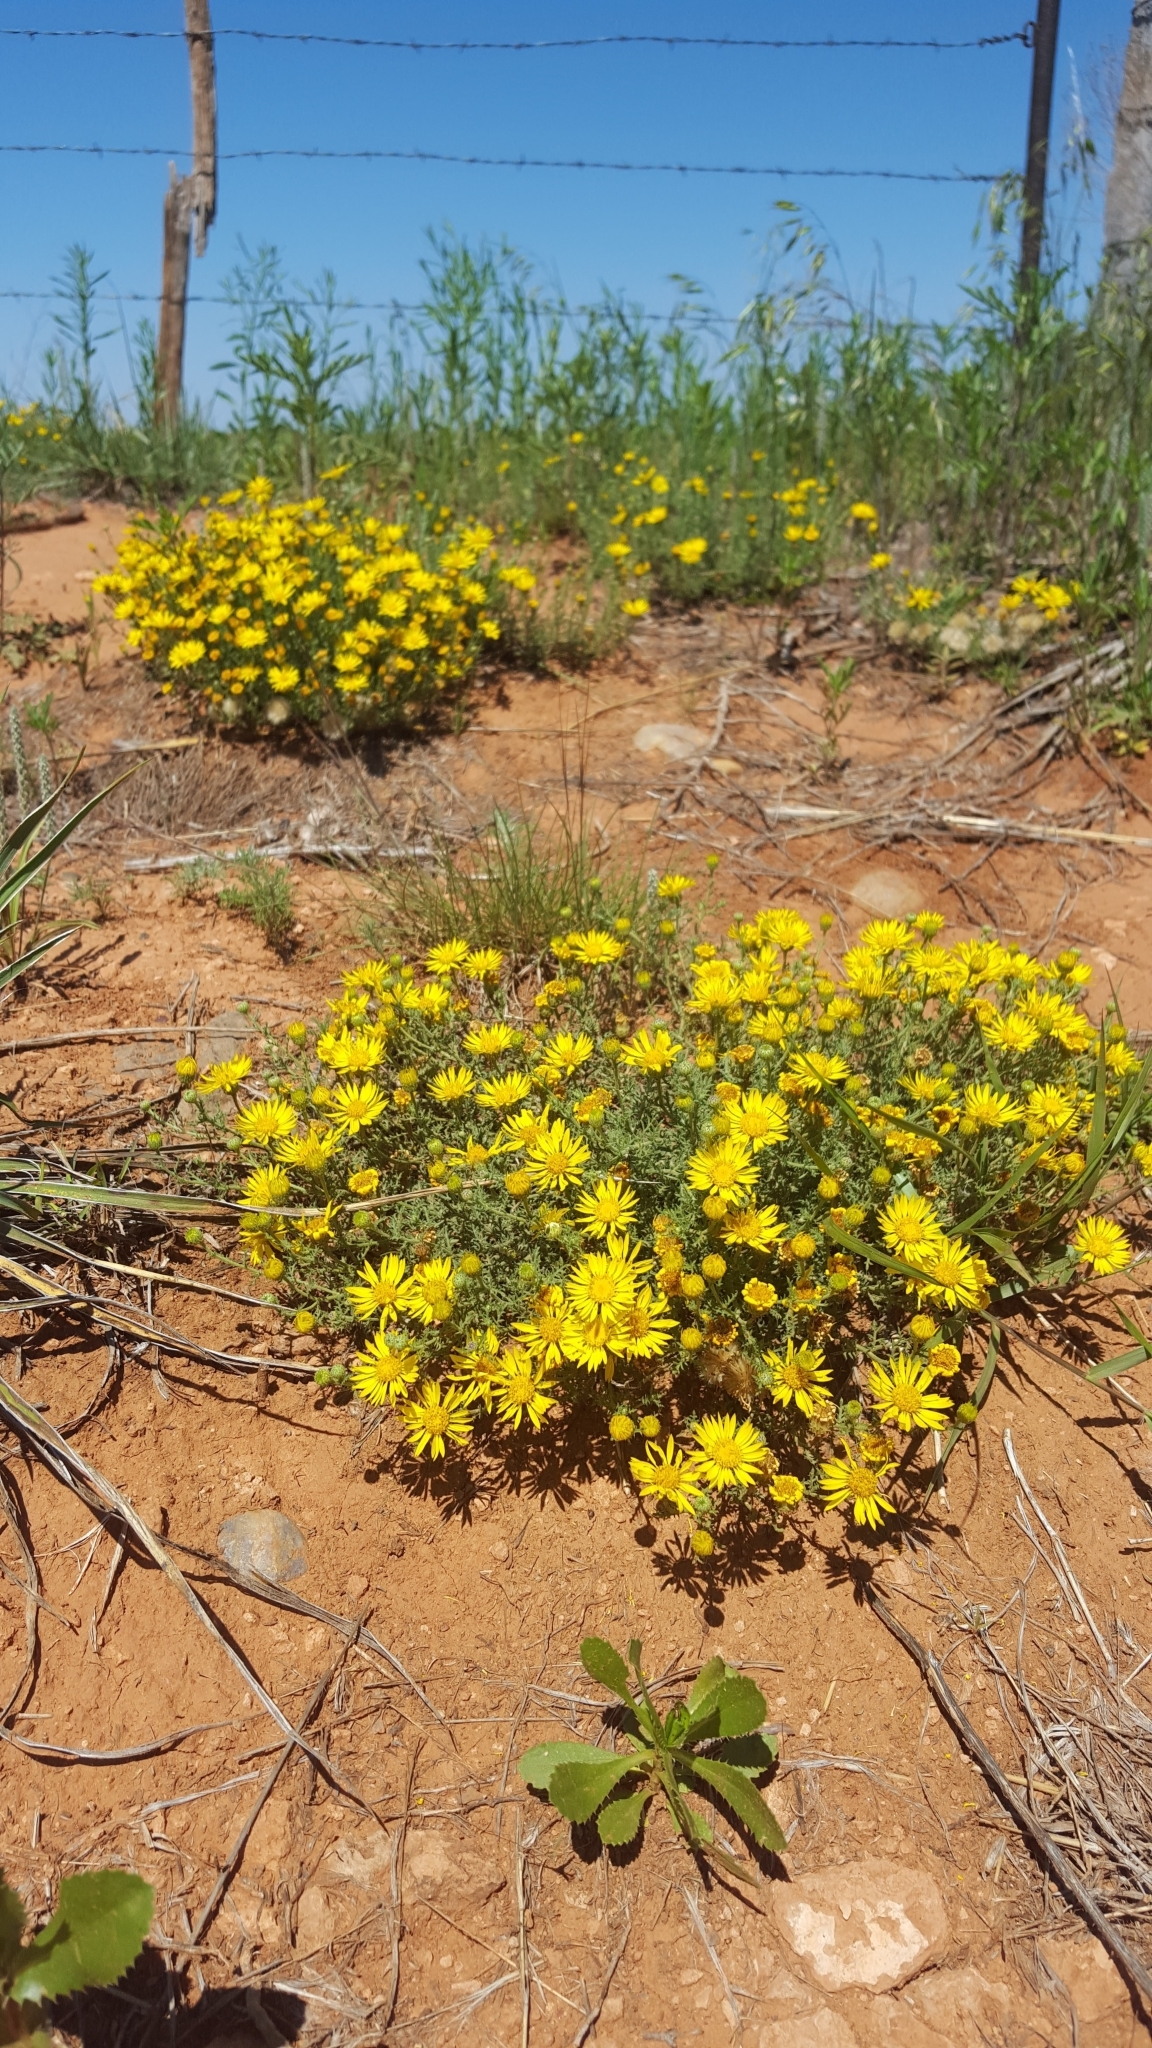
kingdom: Plantae
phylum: Tracheophyta
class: Magnoliopsida
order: Asterales
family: Asteraceae
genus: Xanthisma
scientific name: Xanthisma spinulosum
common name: Spiny goldenweed
